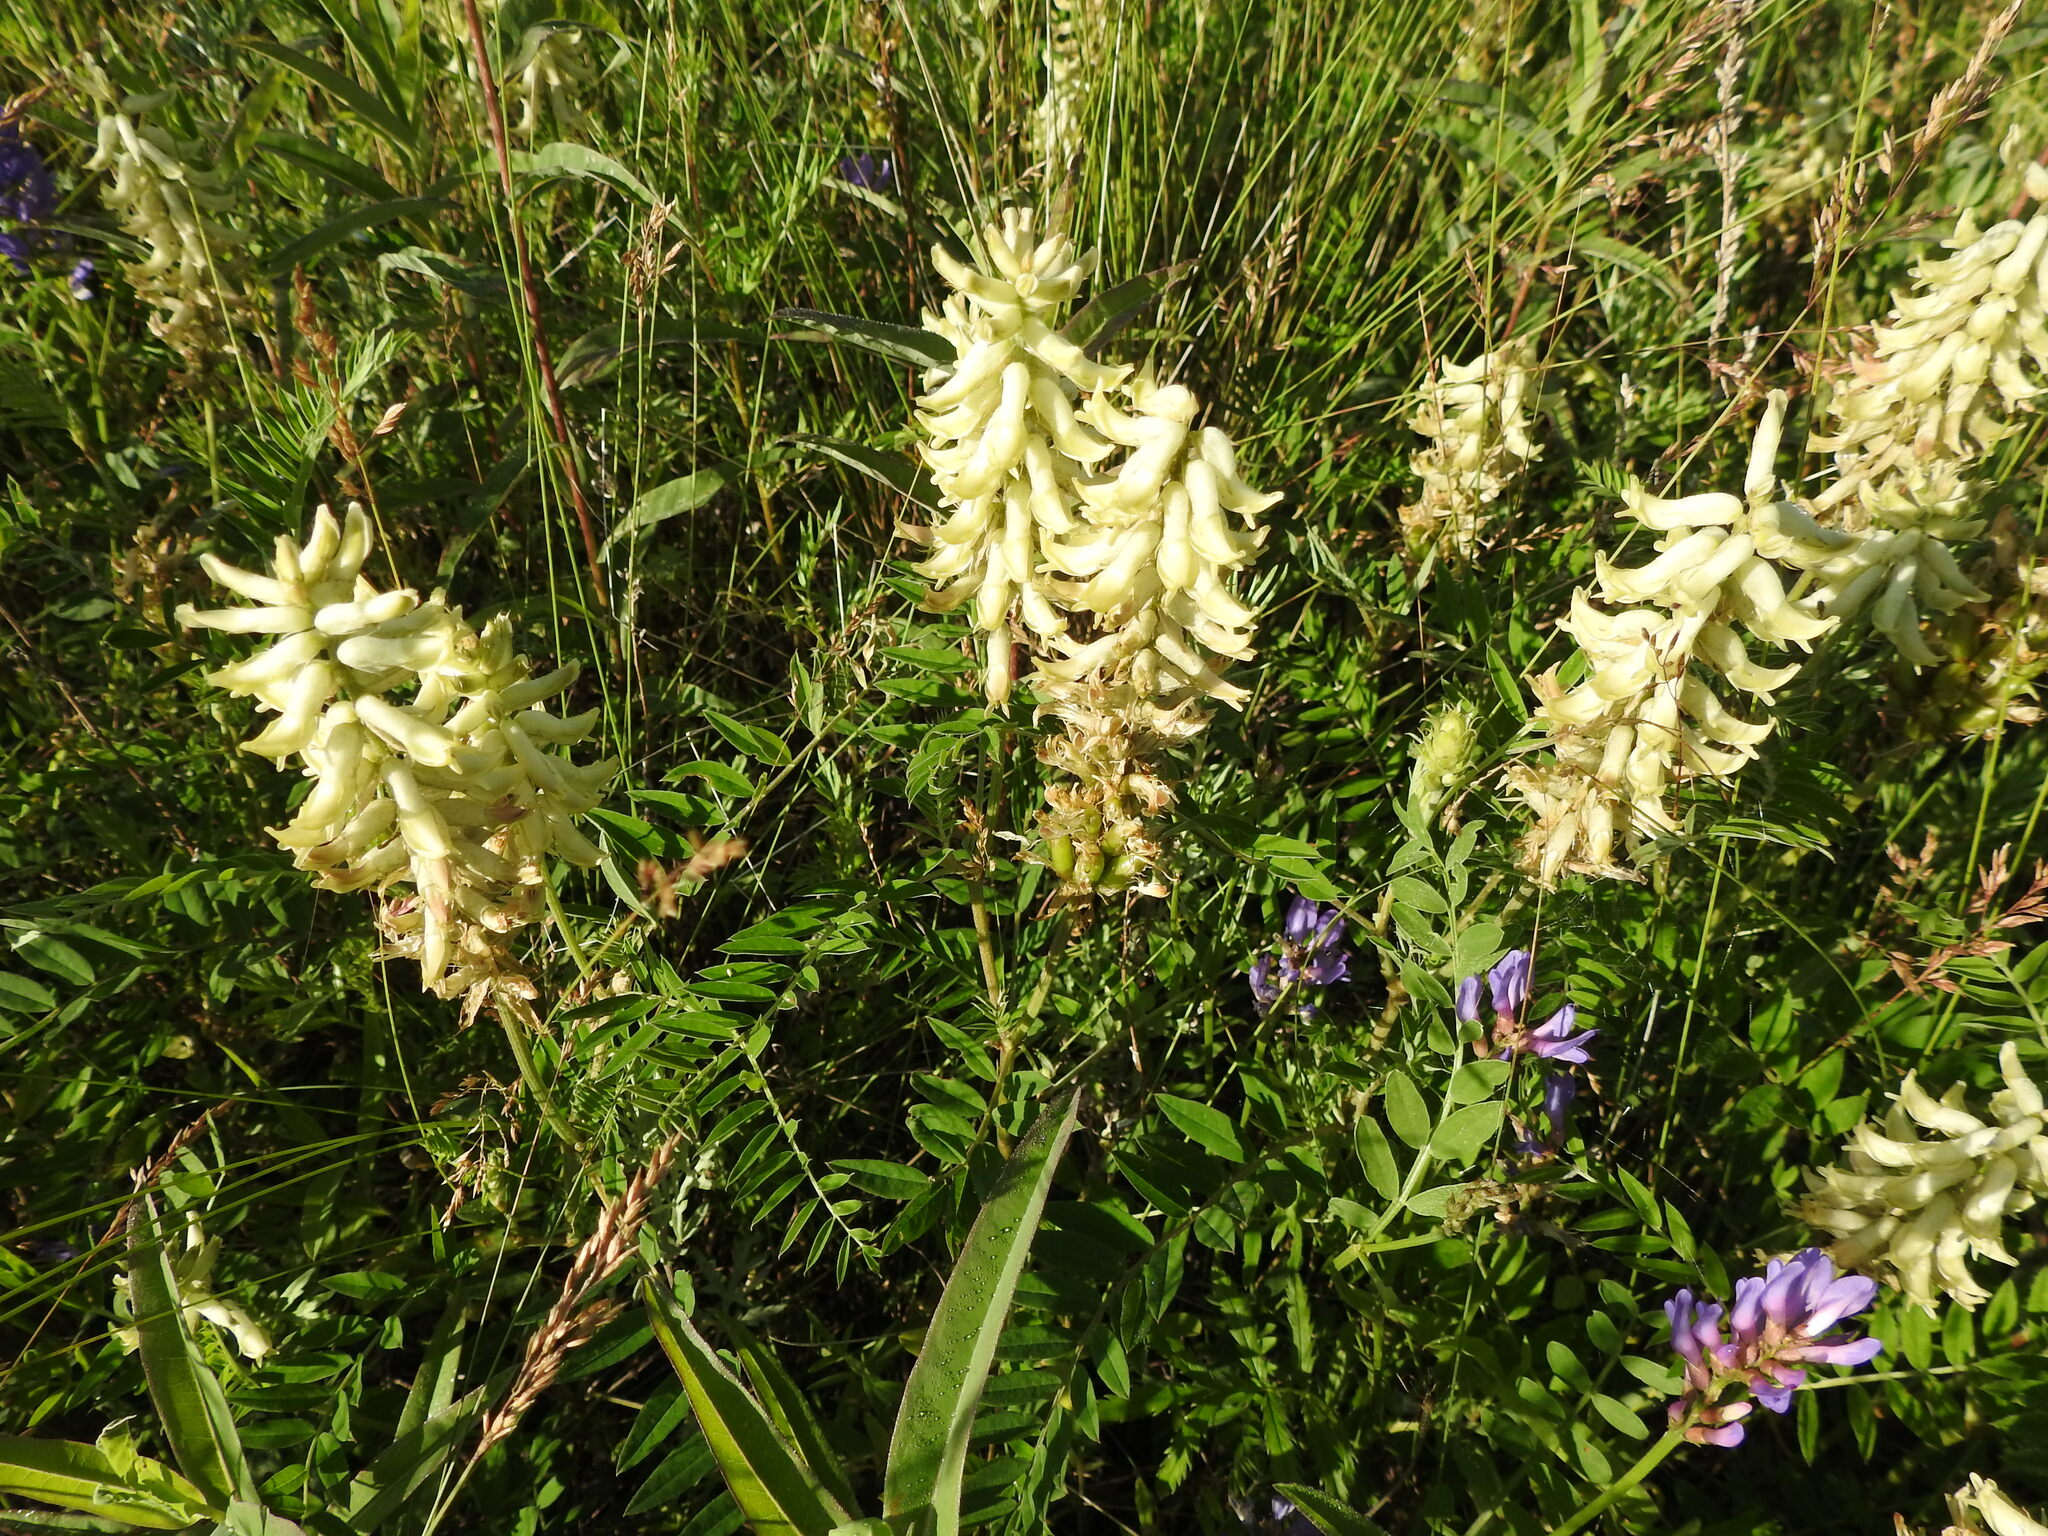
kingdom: Plantae
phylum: Tracheophyta
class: Magnoliopsida
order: Fabales
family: Fabaceae
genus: Astragalus
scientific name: Astragalus uliginosus
